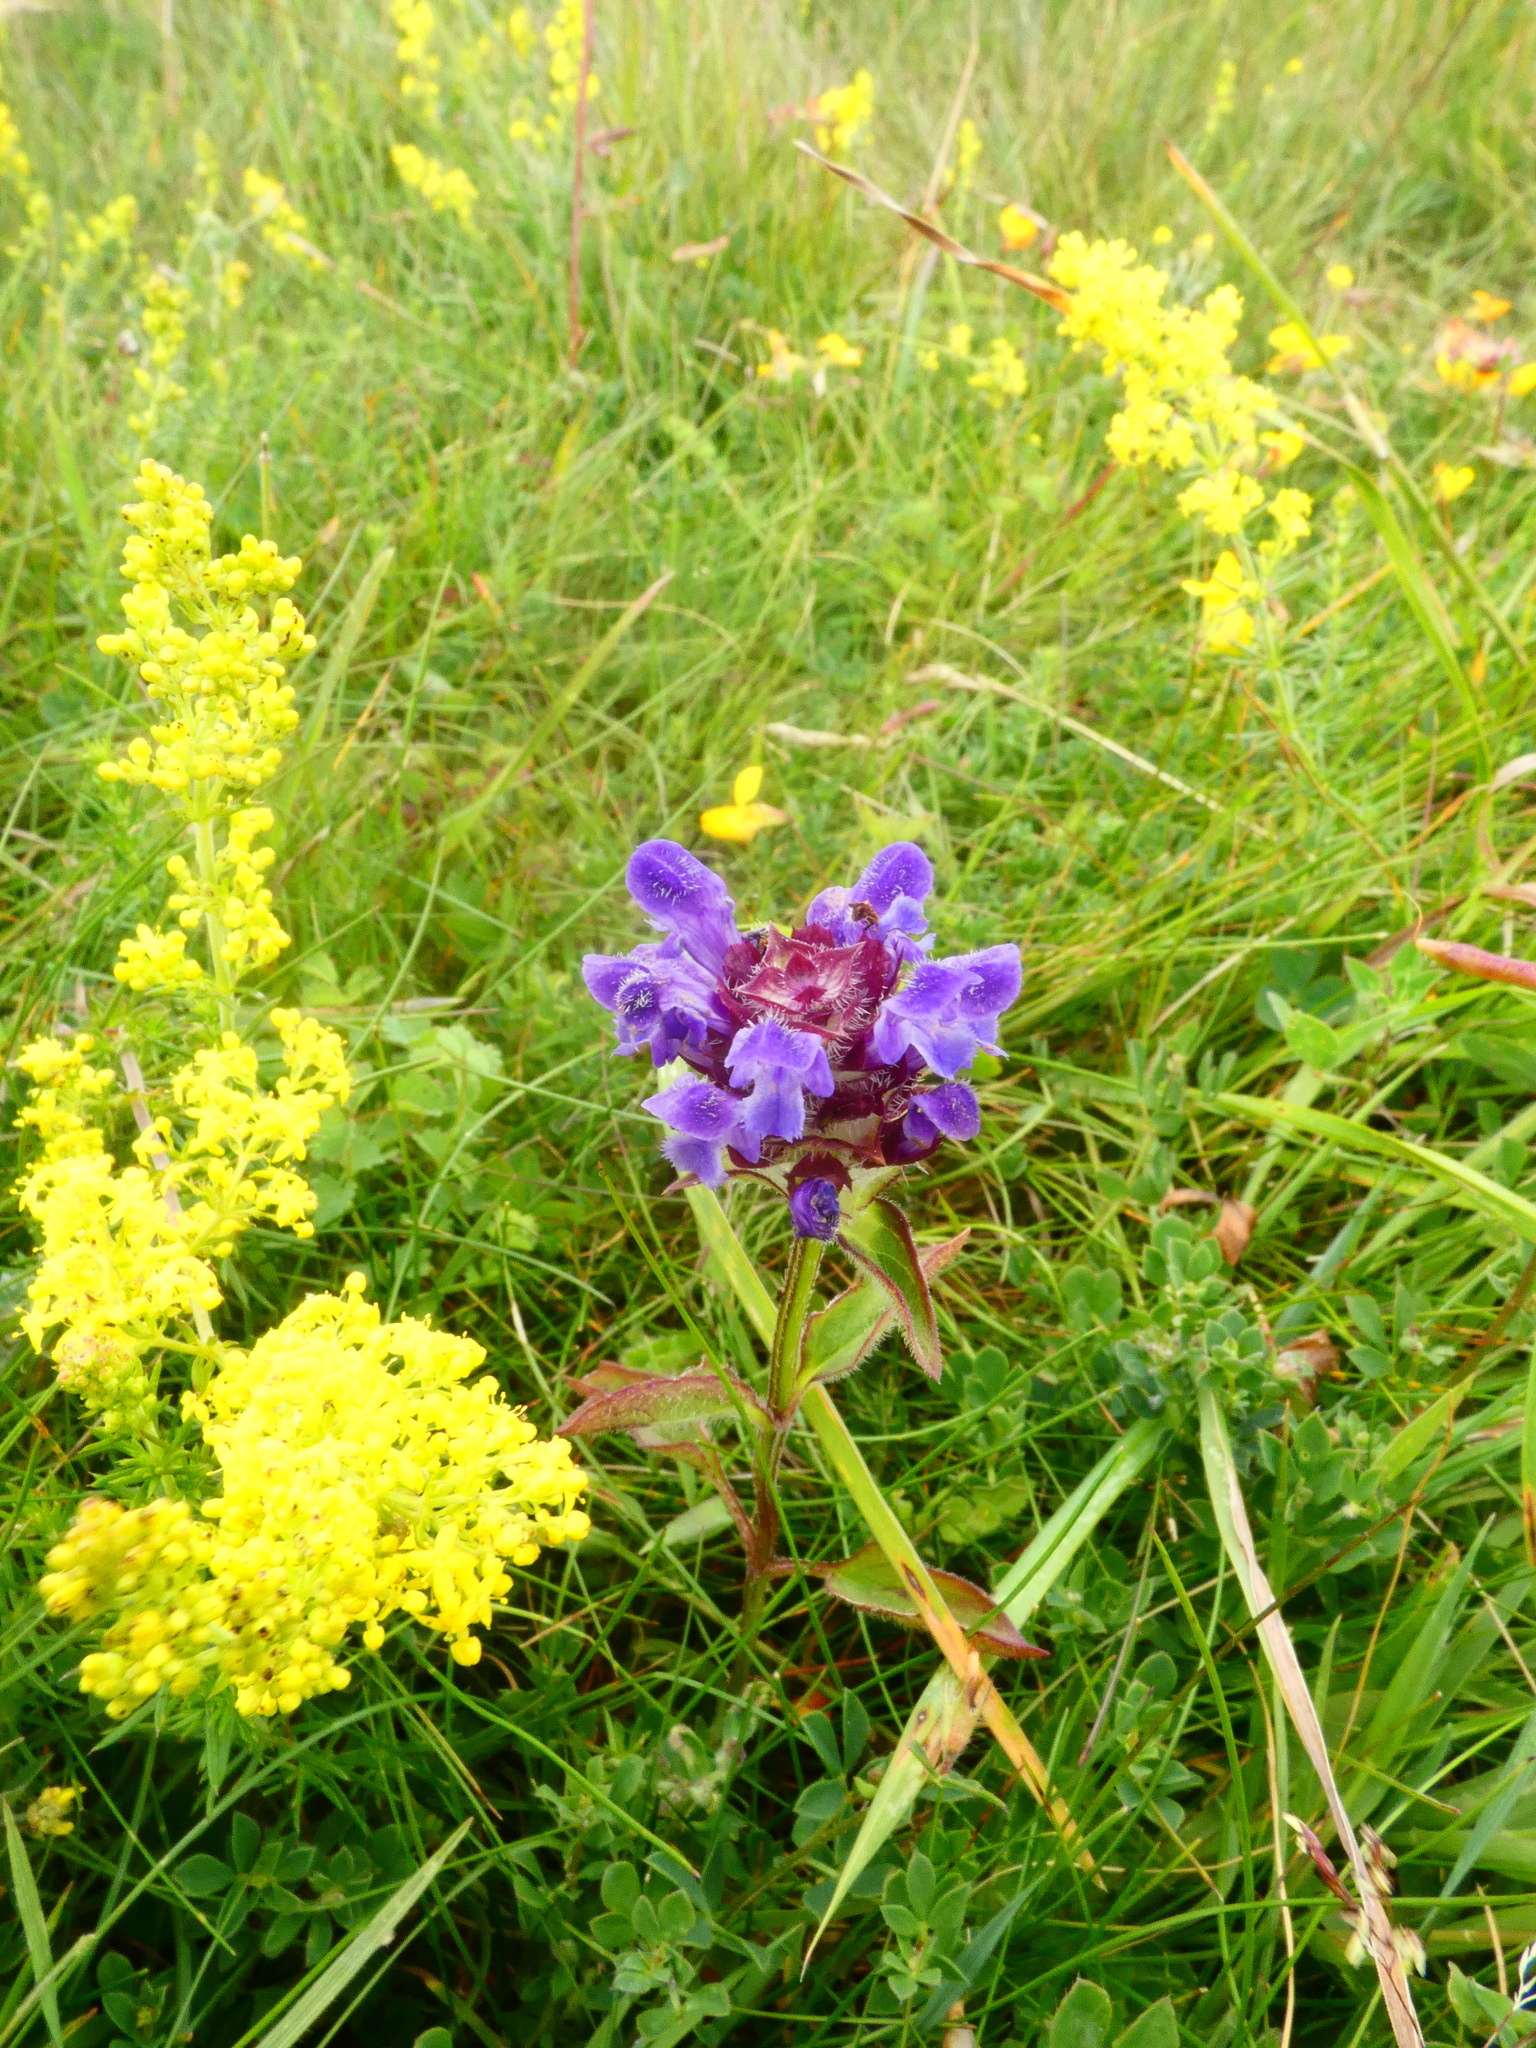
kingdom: Plantae
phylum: Tracheophyta
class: Magnoliopsida
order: Lamiales
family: Lamiaceae
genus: Prunella
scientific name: Prunella vulgaris
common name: Heal-all
